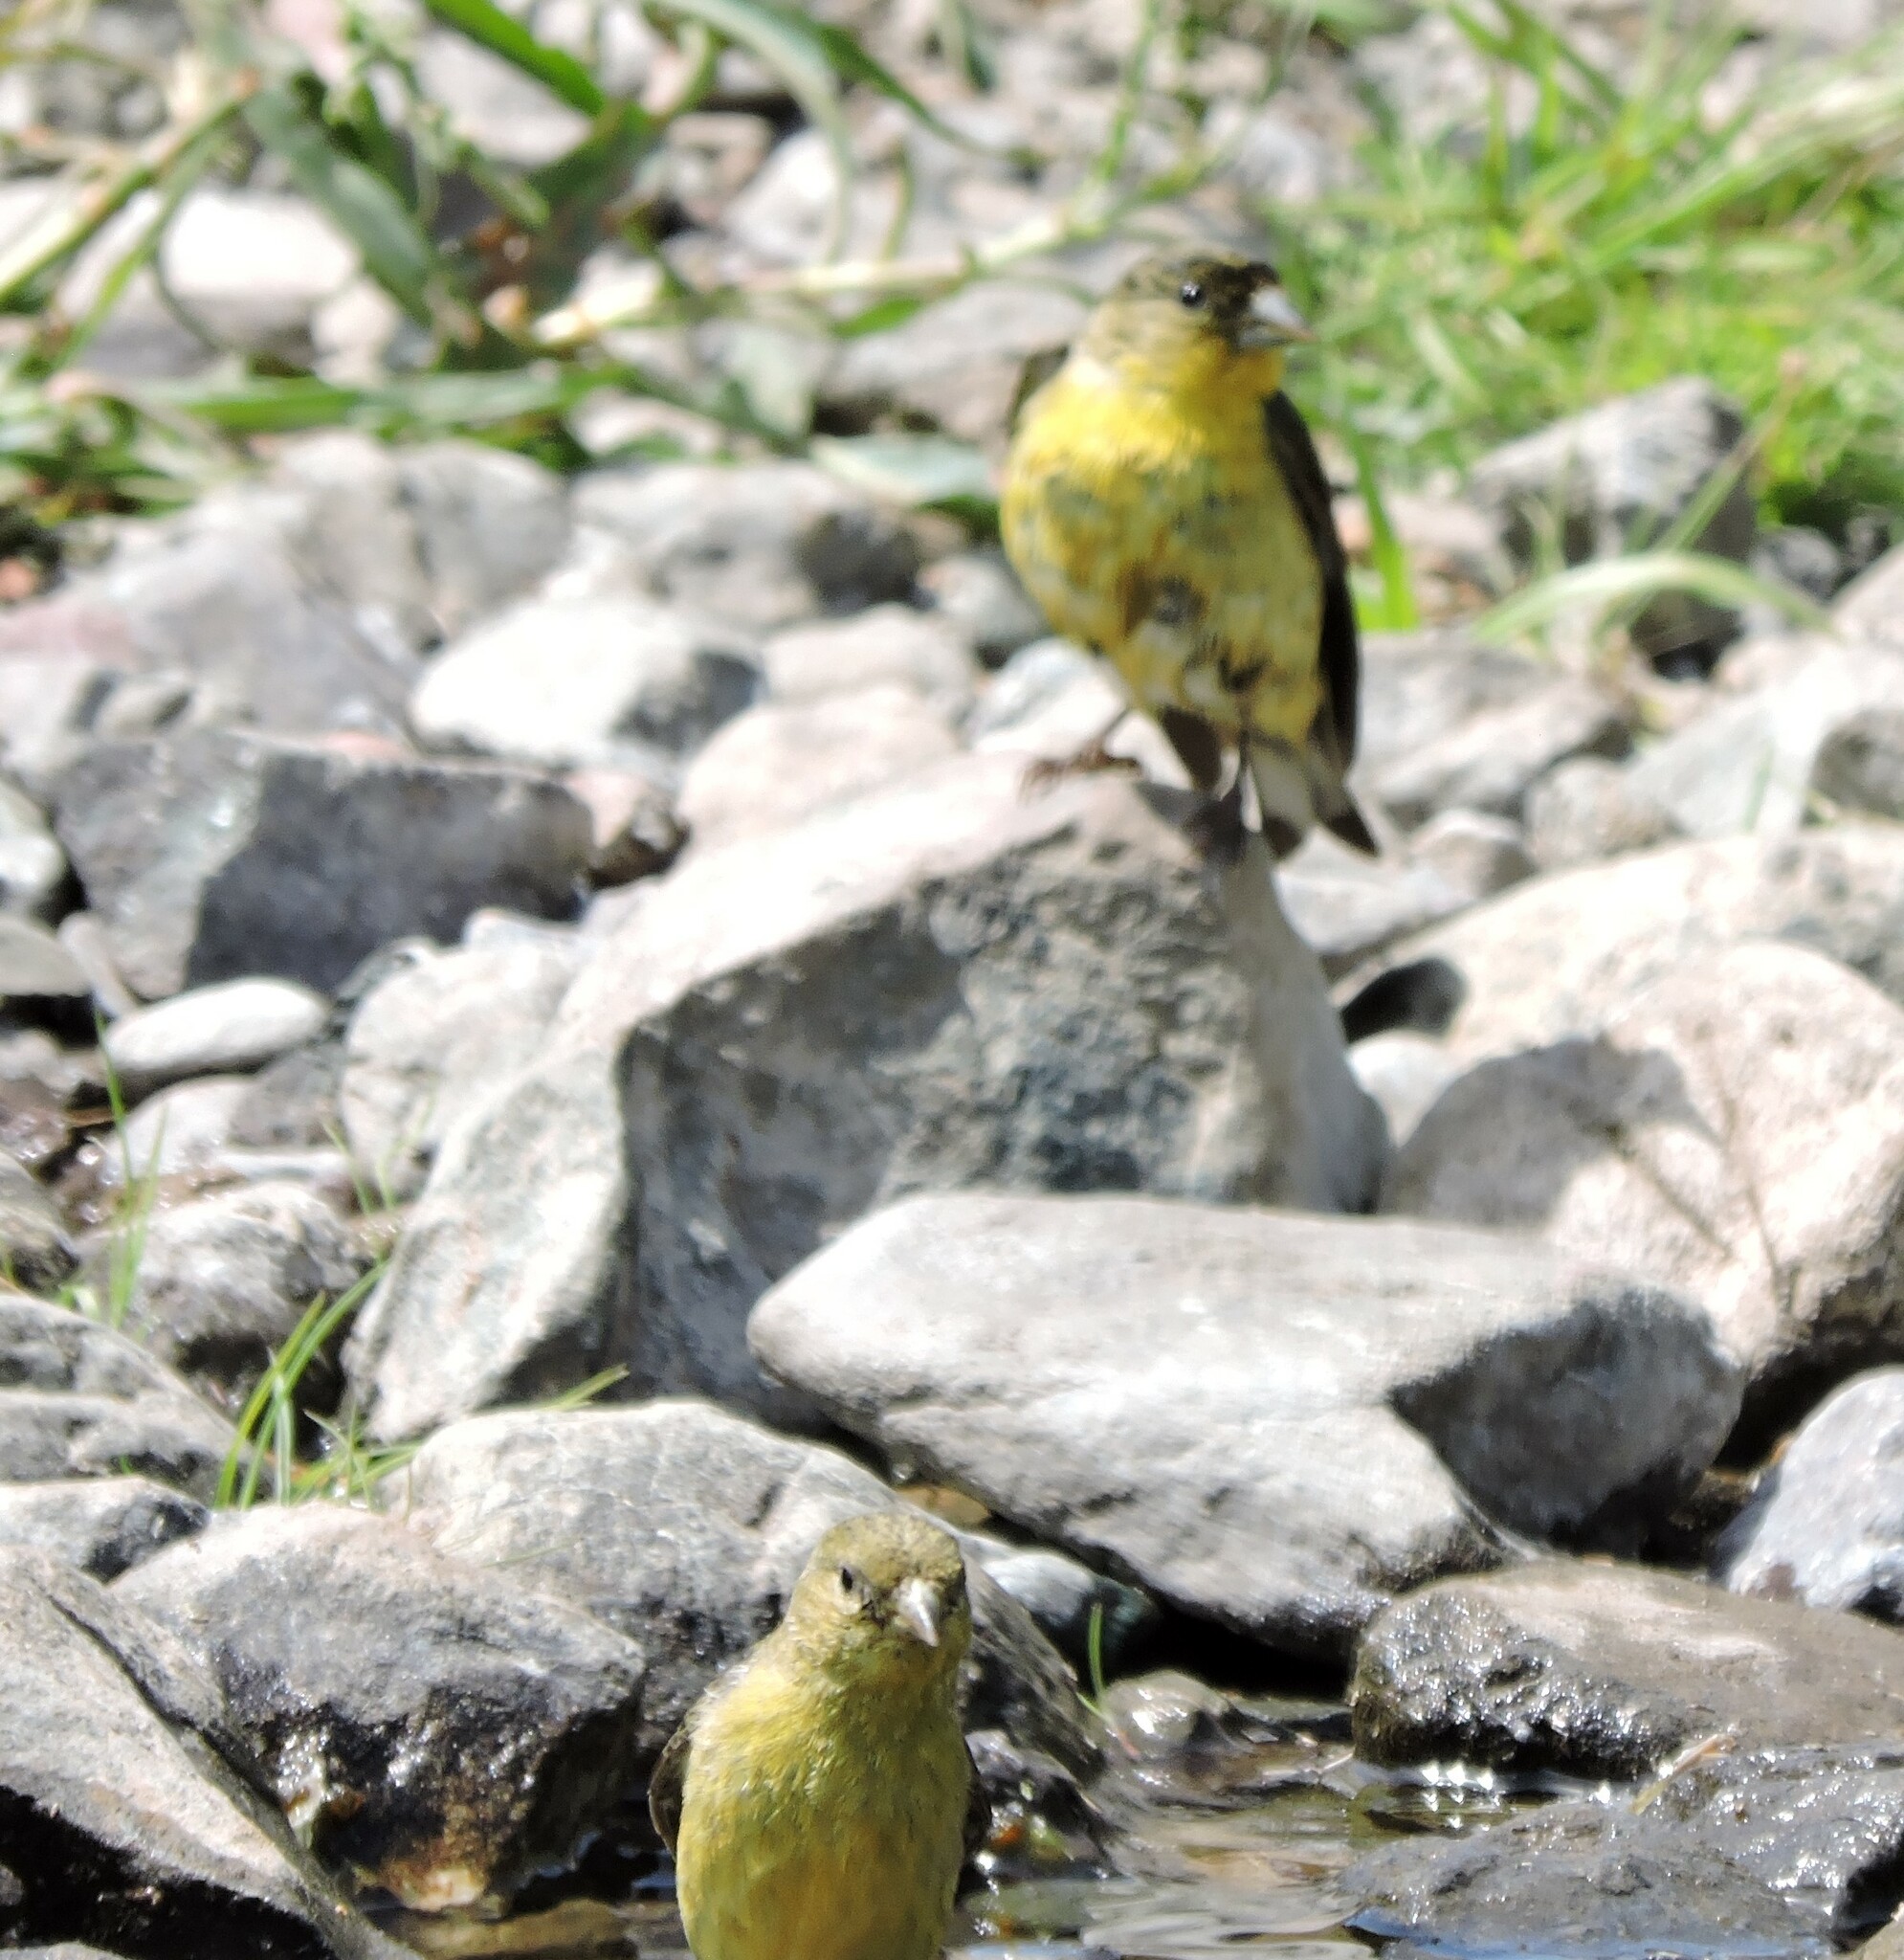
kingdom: Animalia
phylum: Chordata
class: Aves
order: Passeriformes
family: Fringillidae
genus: Spinus
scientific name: Spinus psaltria
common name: Lesser goldfinch
